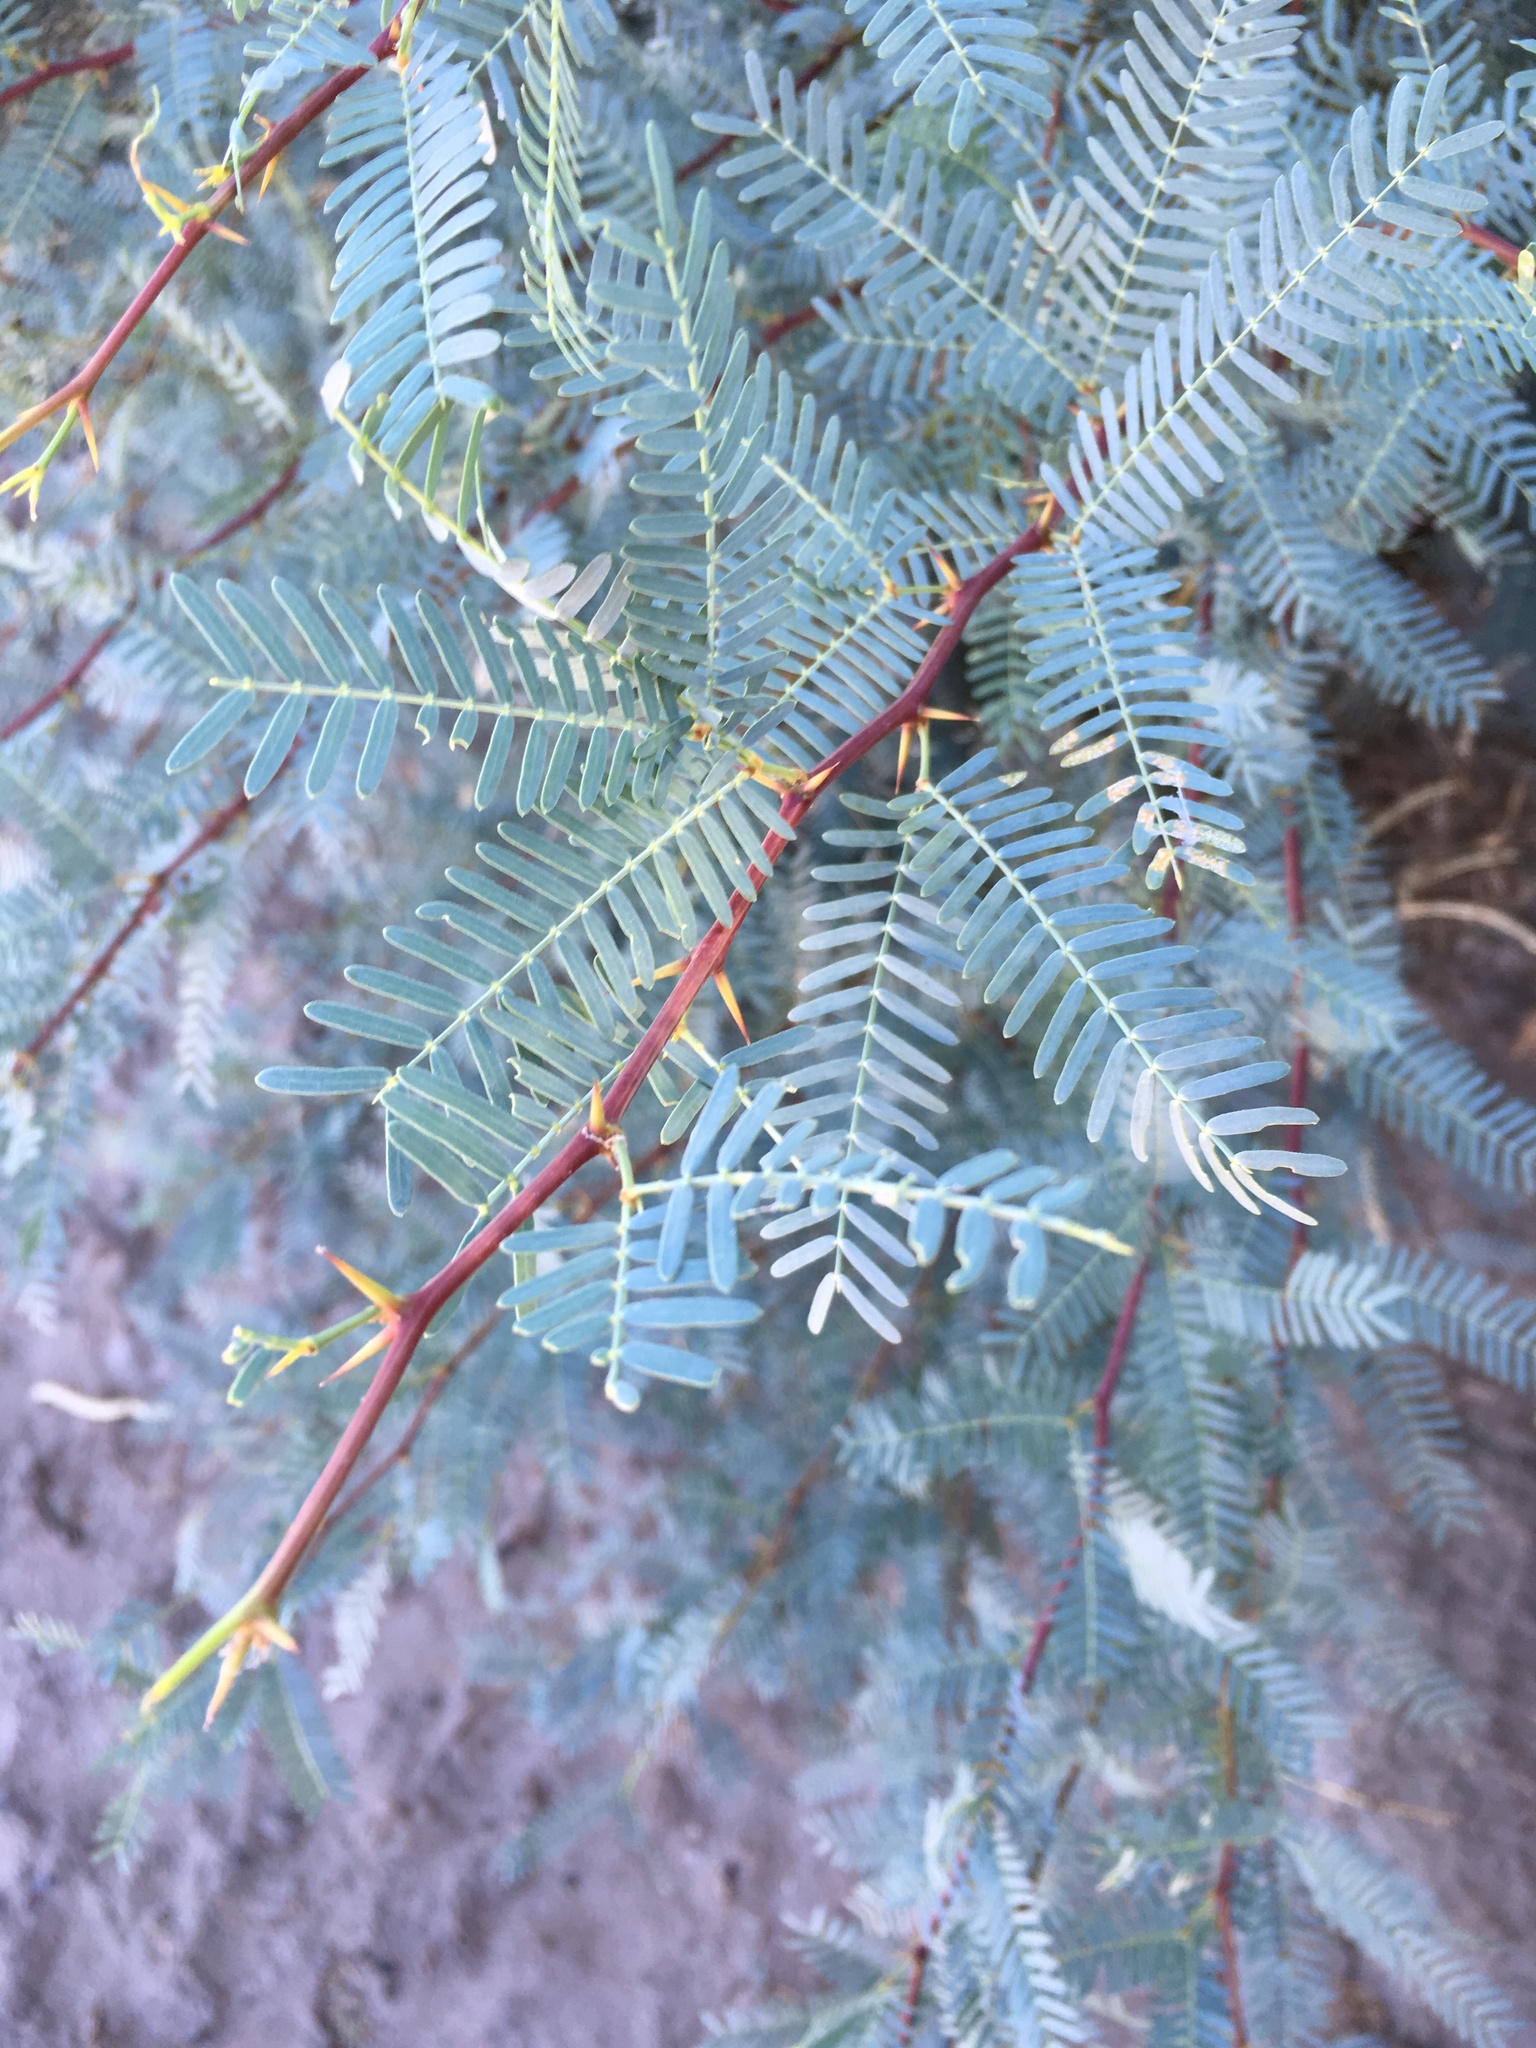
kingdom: Plantae
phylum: Tracheophyta
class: Magnoliopsida
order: Fabales
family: Fabaceae
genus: Prosopis
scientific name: Prosopis glandulosa
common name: Honey mesquite
